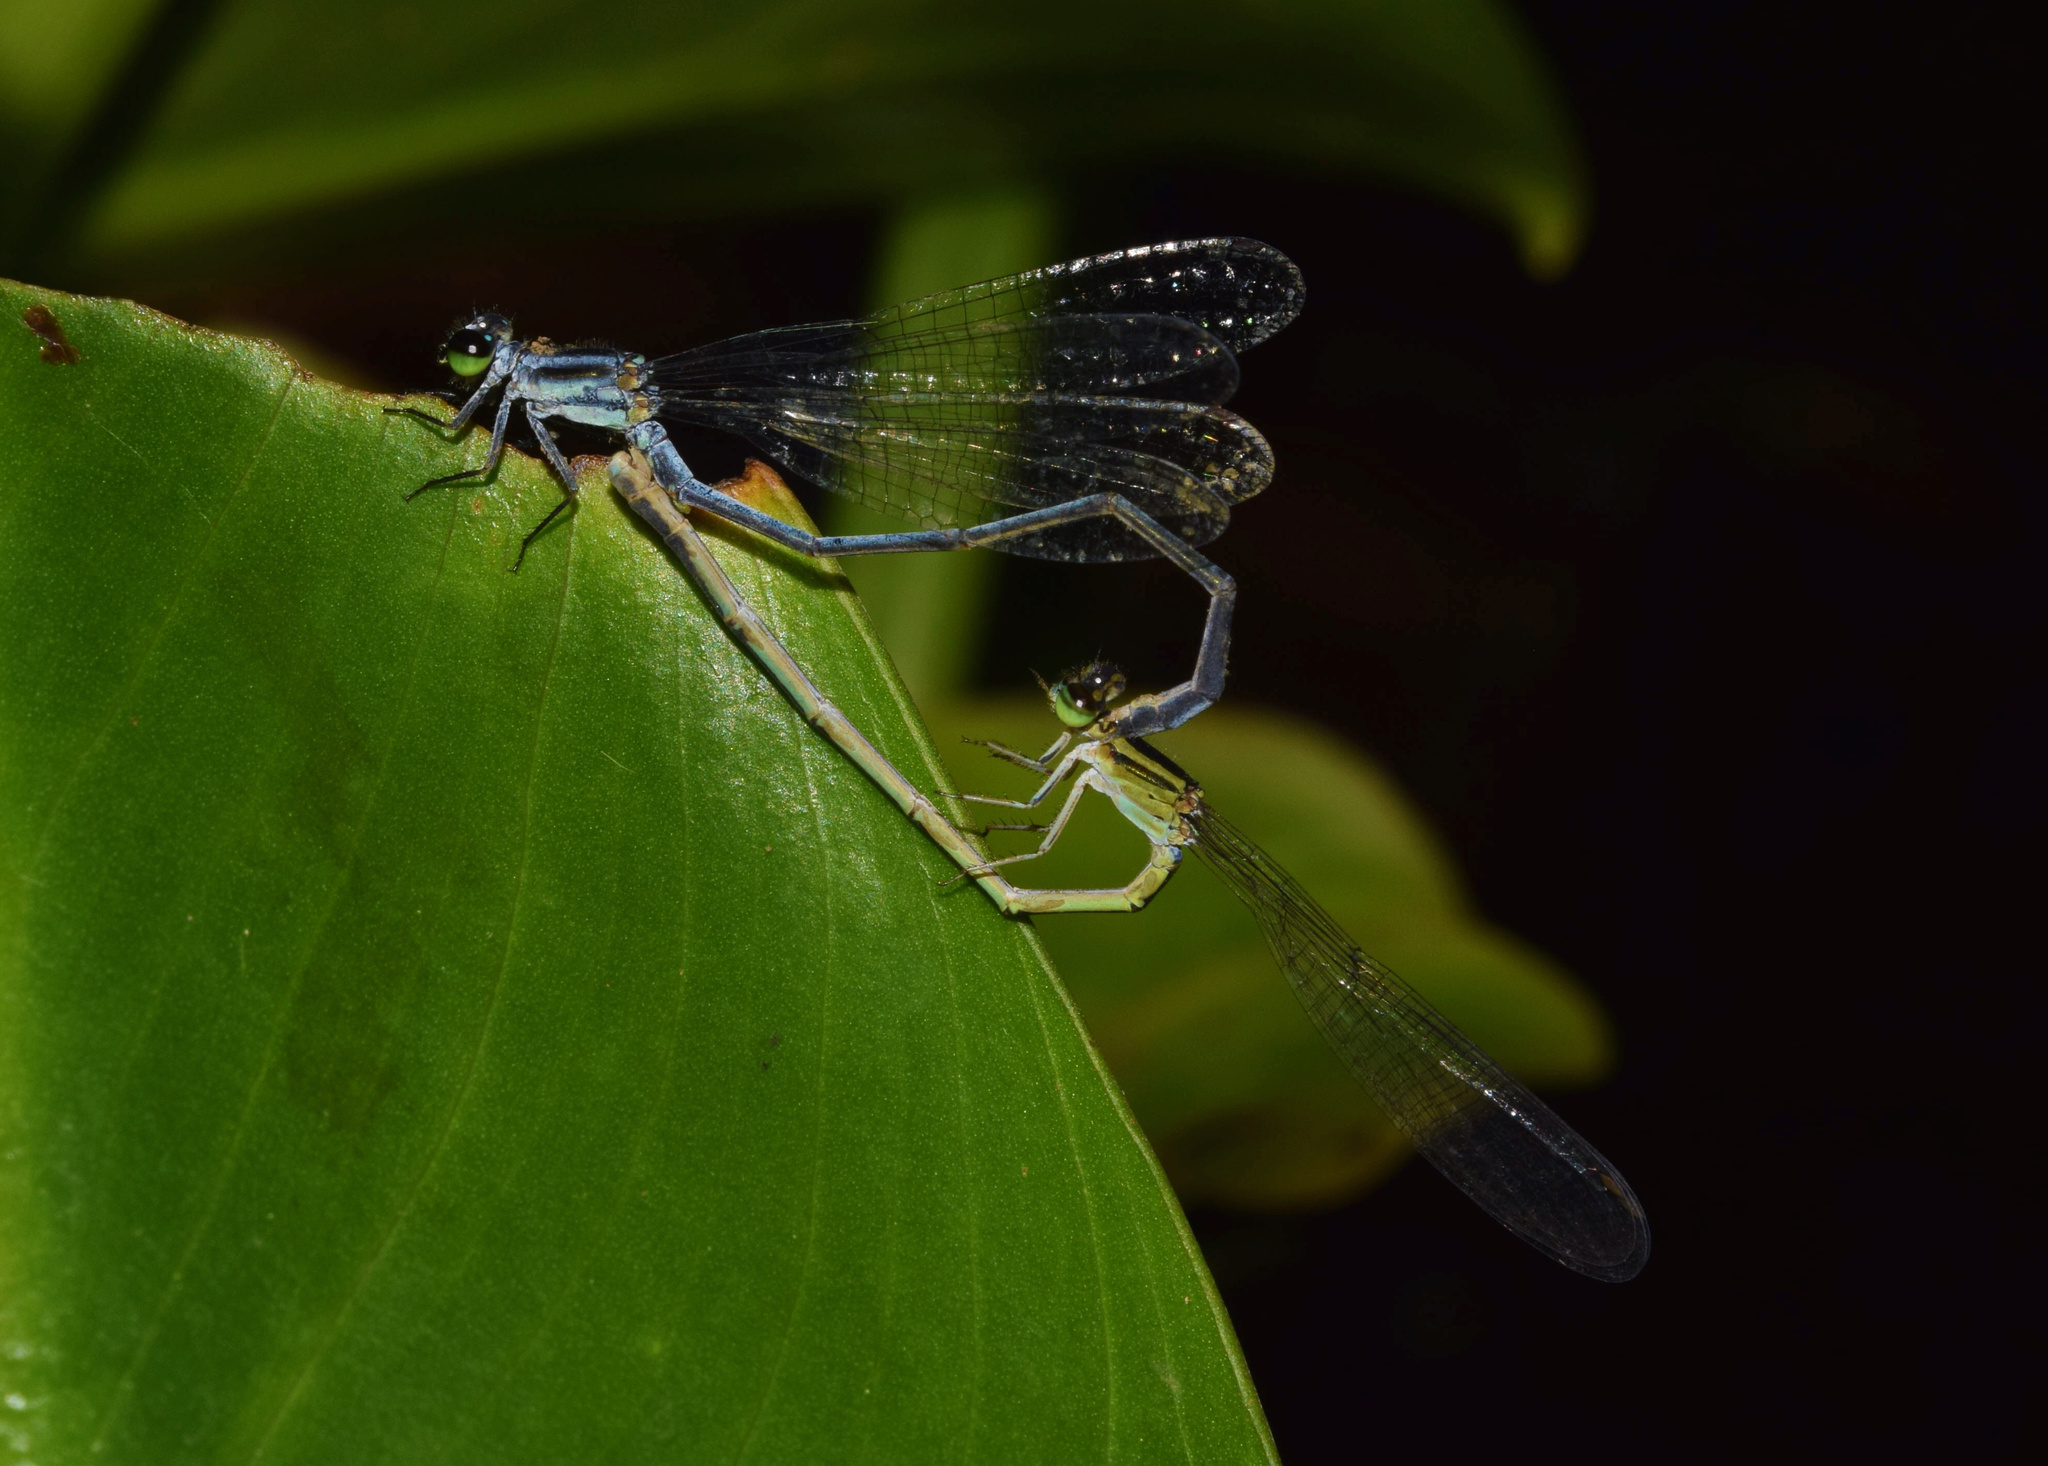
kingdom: Animalia
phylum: Arthropoda
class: Insecta
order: Odonata
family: Coenagrionidae
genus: Pseudagrion
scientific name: Pseudagrion kersteni
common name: Powder-faced sprite
